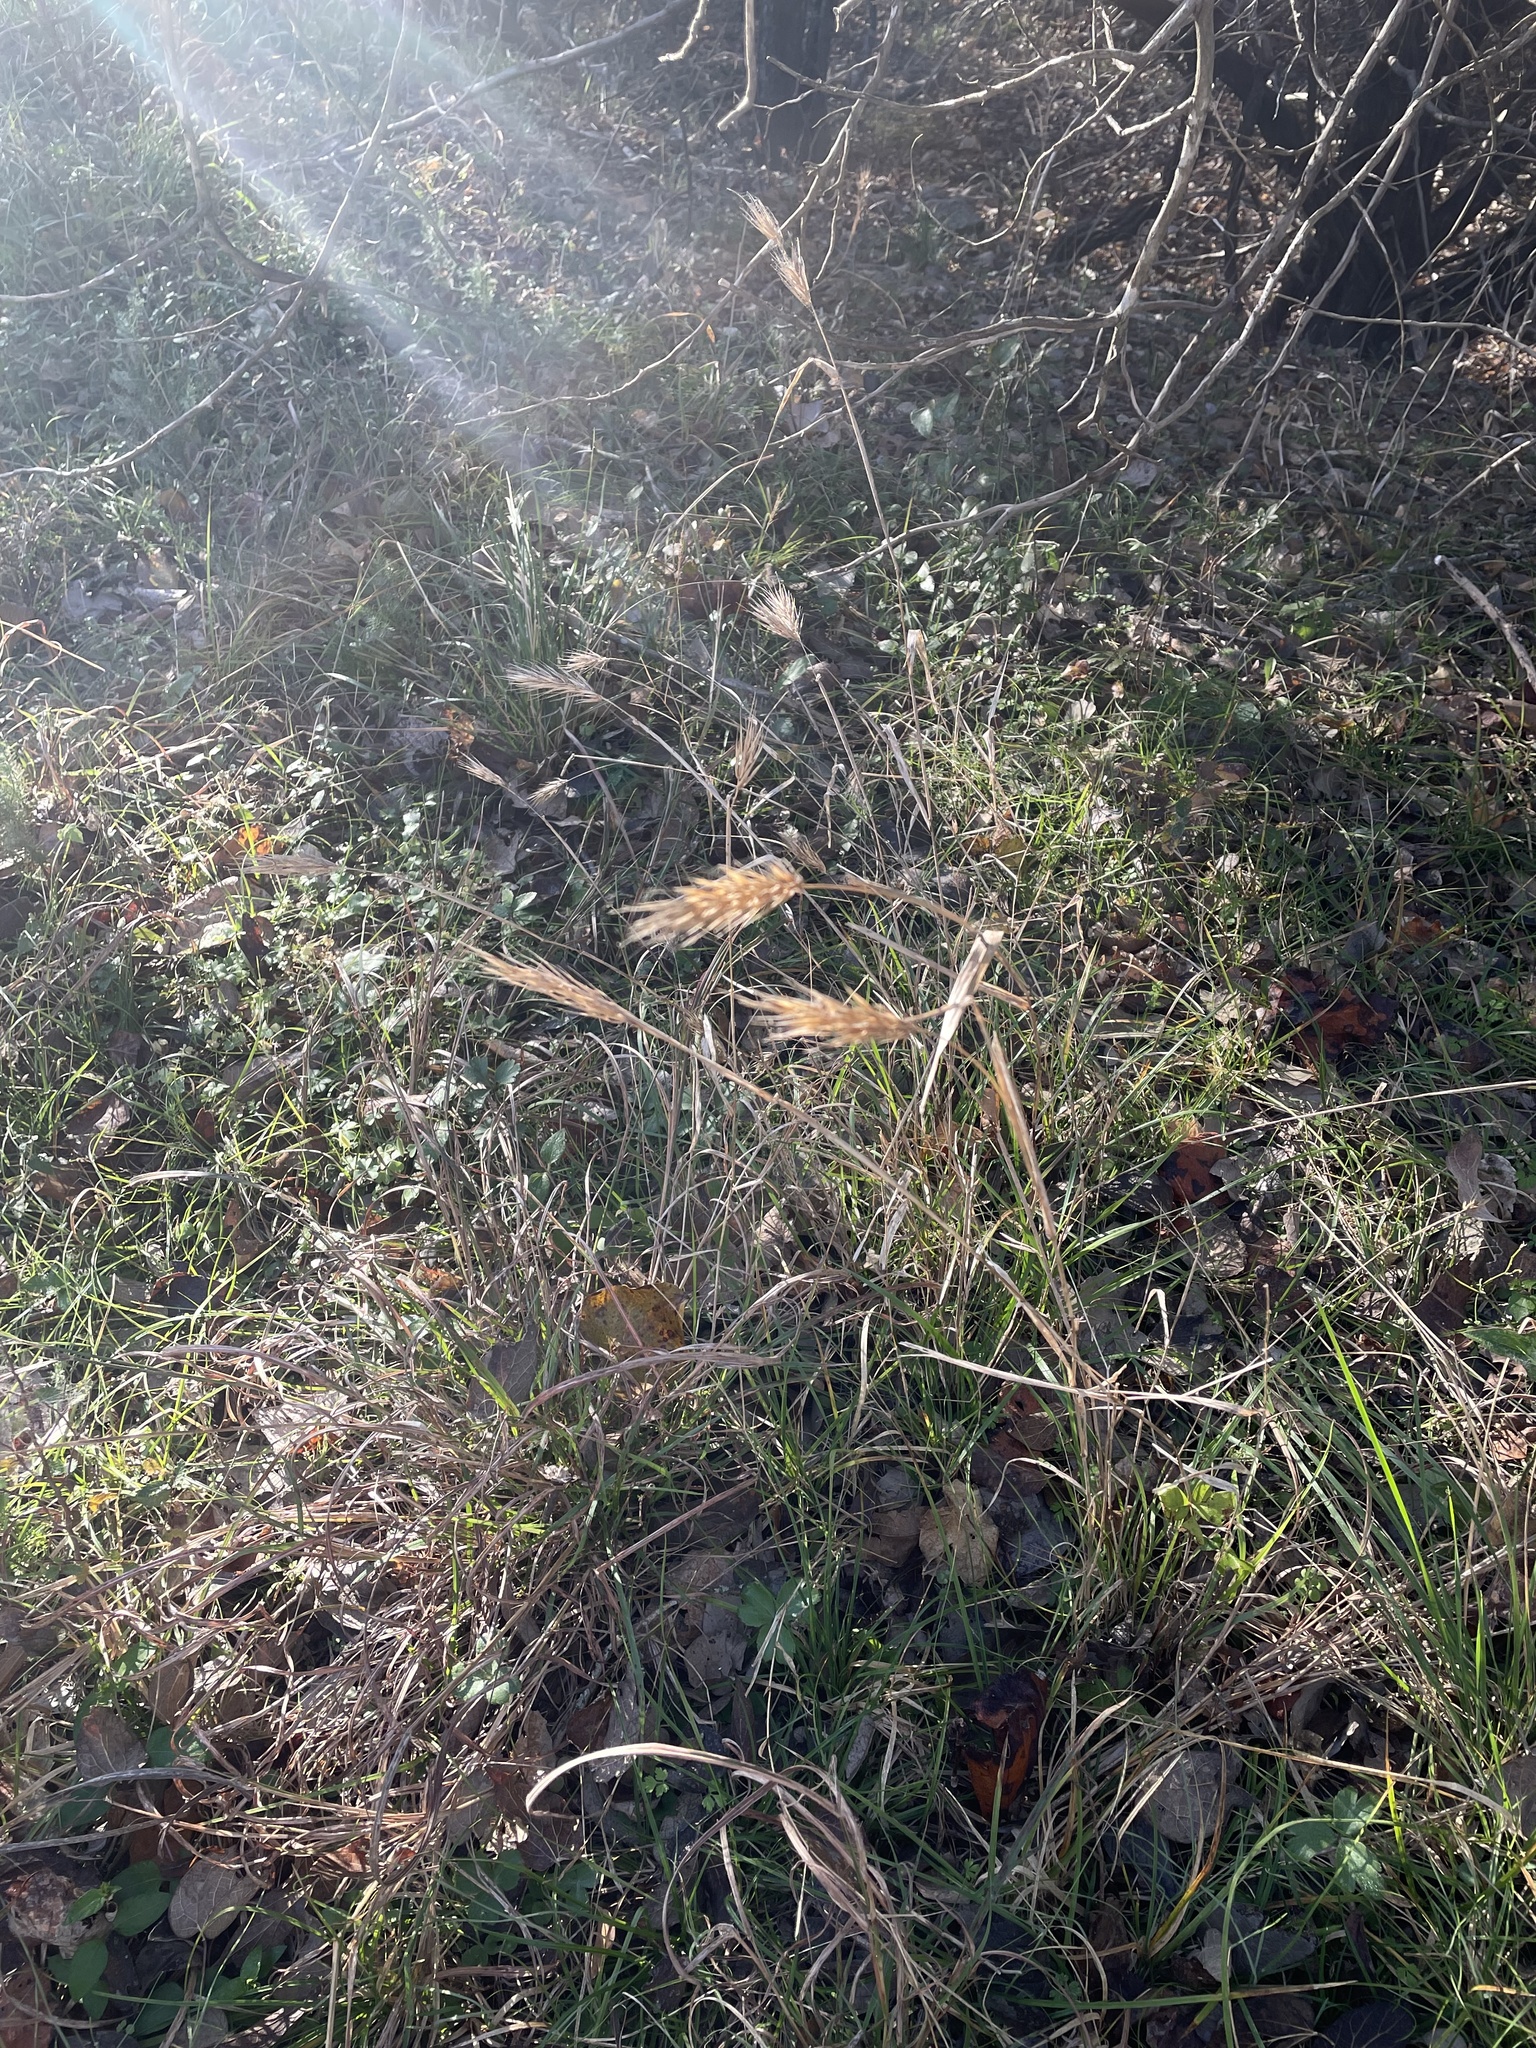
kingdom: Plantae
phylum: Tracheophyta
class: Liliopsida
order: Poales
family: Poaceae
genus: Elymus
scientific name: Elymus virginicus
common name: Common eastern wildrye
